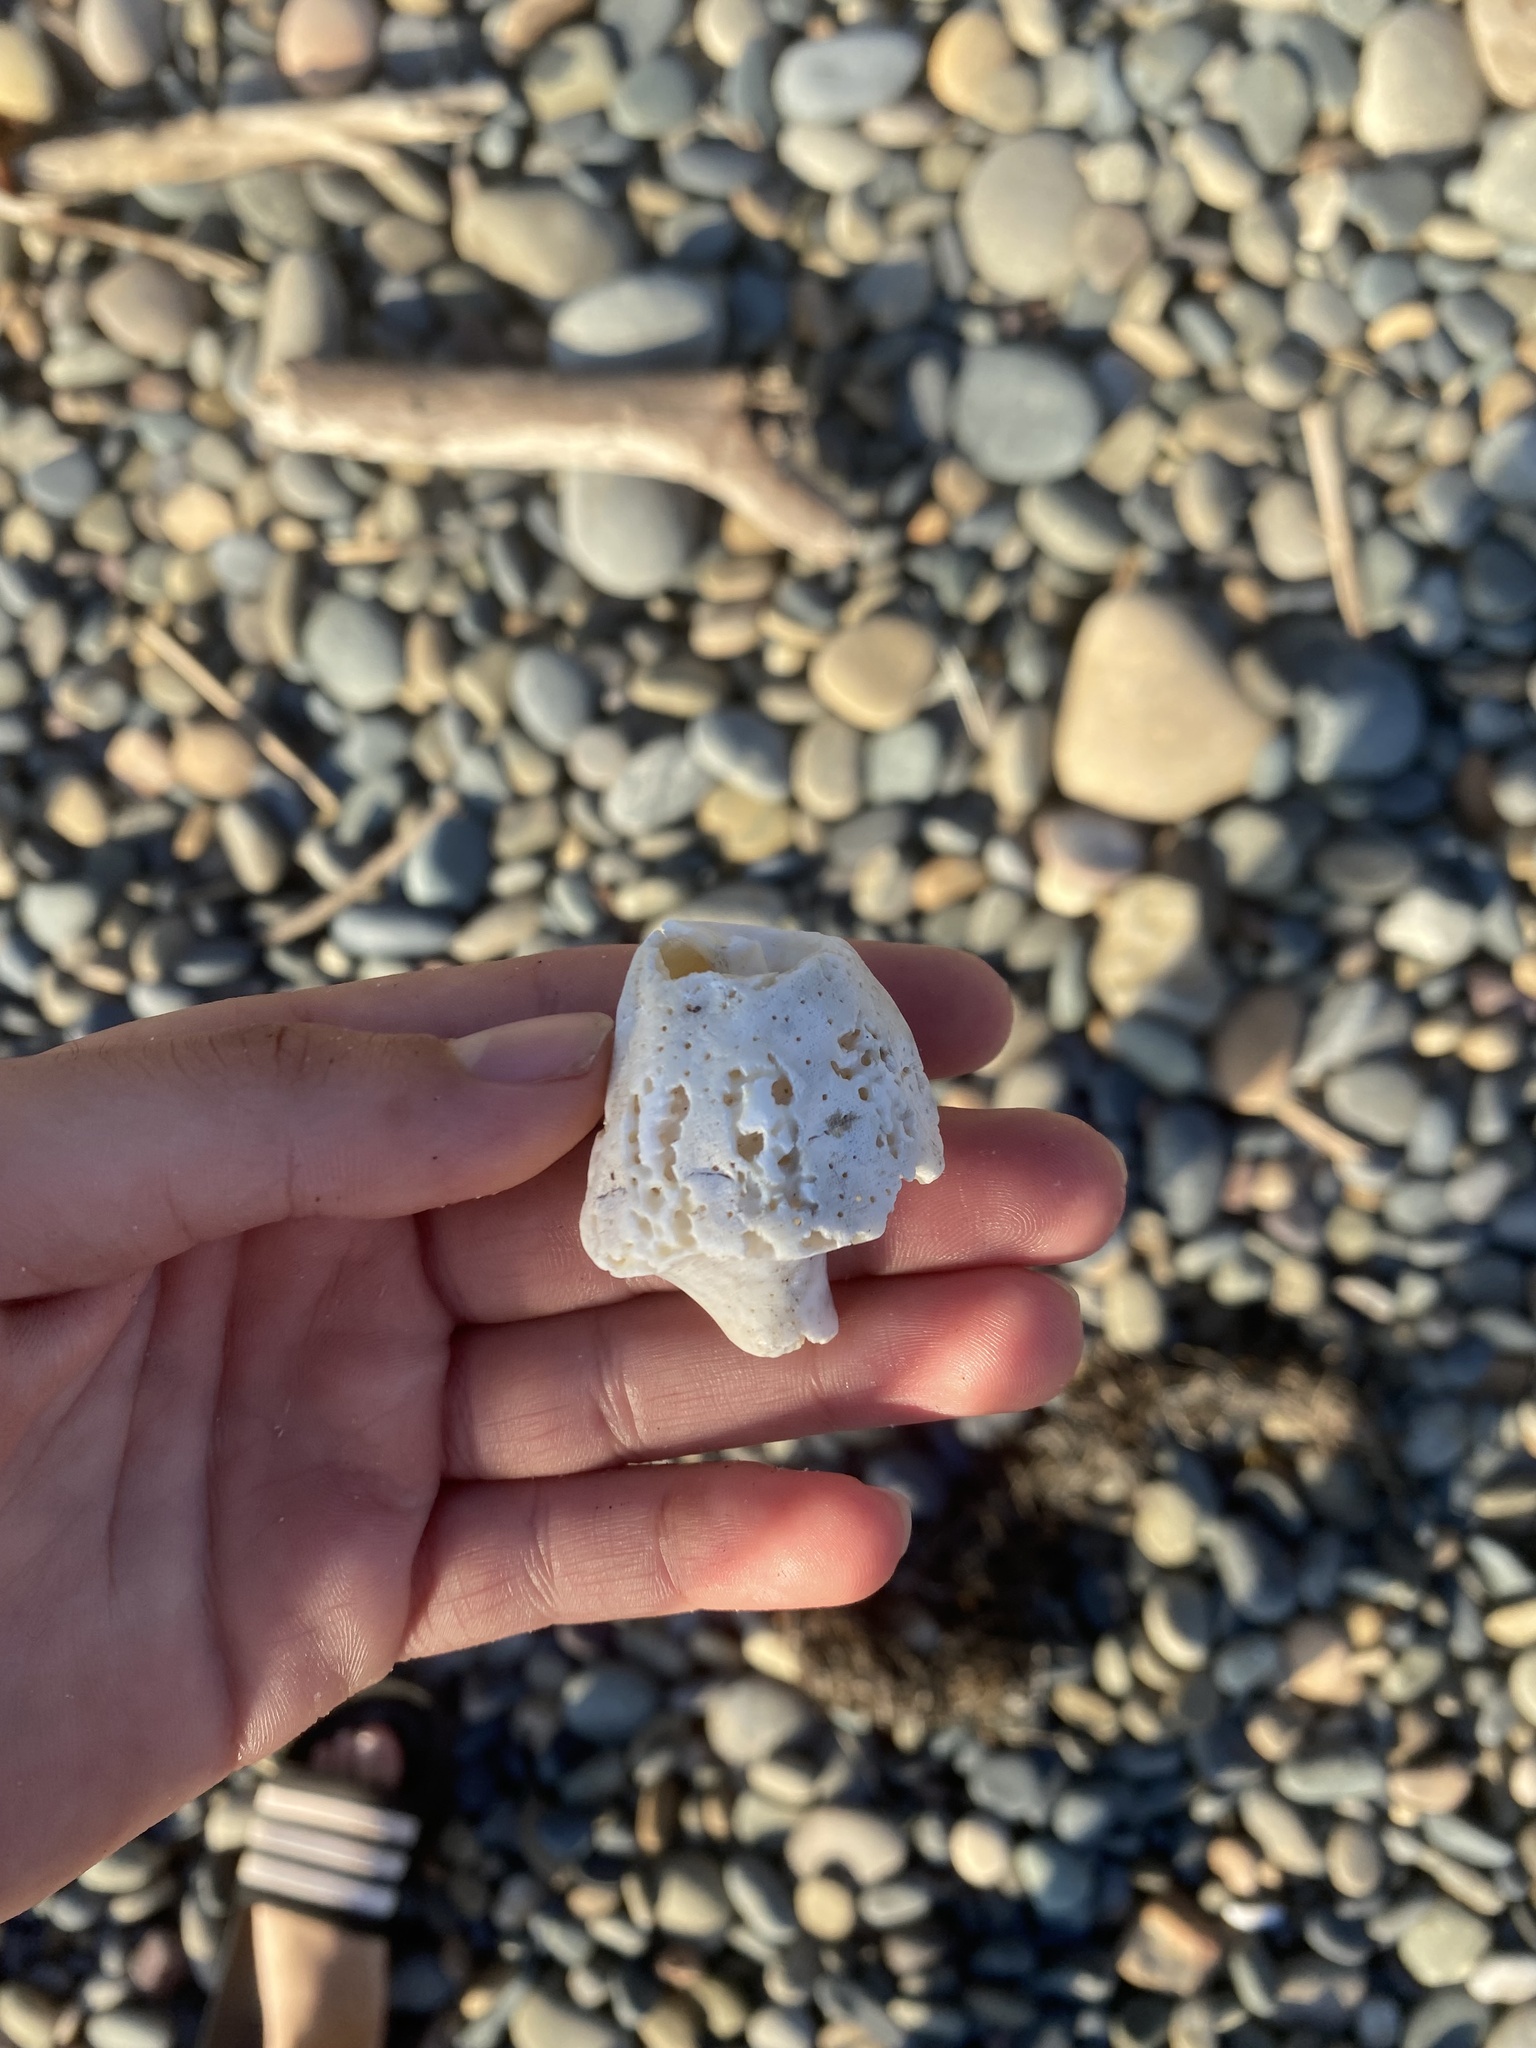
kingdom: Animalia
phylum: Mollusca
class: Gastropoda
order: Neogastropoda
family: Austrosiphonidae
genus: Kelletia
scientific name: Kelletia kelletii
